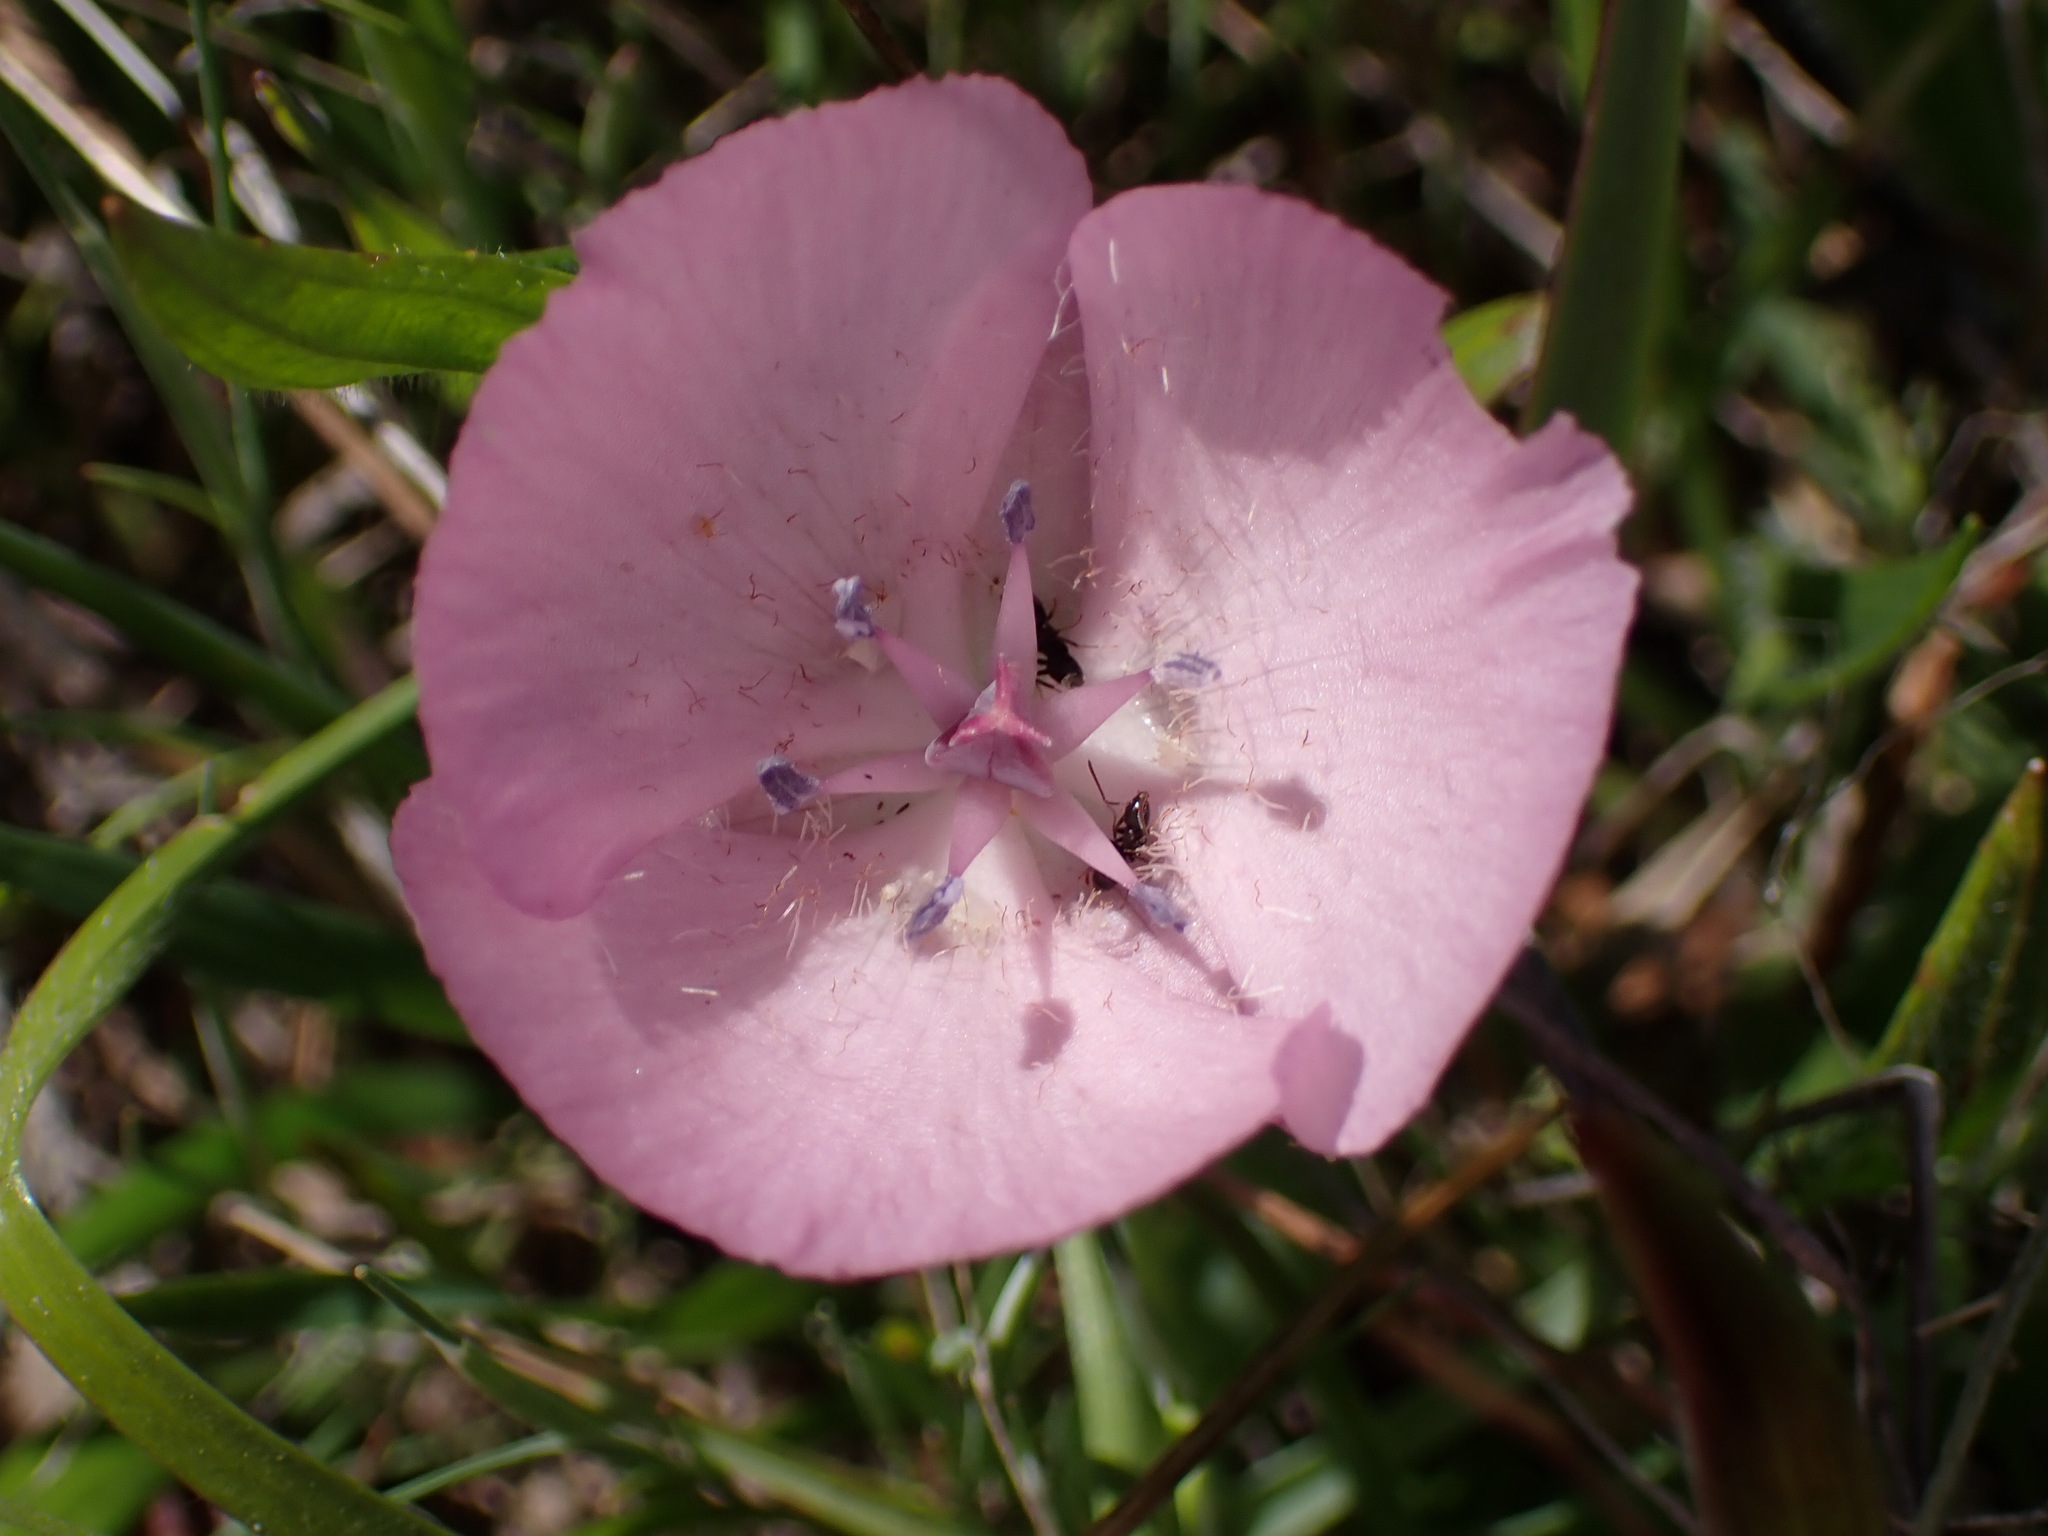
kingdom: Plantae
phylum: Tracheophyta
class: Liliopsida
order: Liliales
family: Liliaceae
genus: Calochortus
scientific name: Calochortus uniflorus
